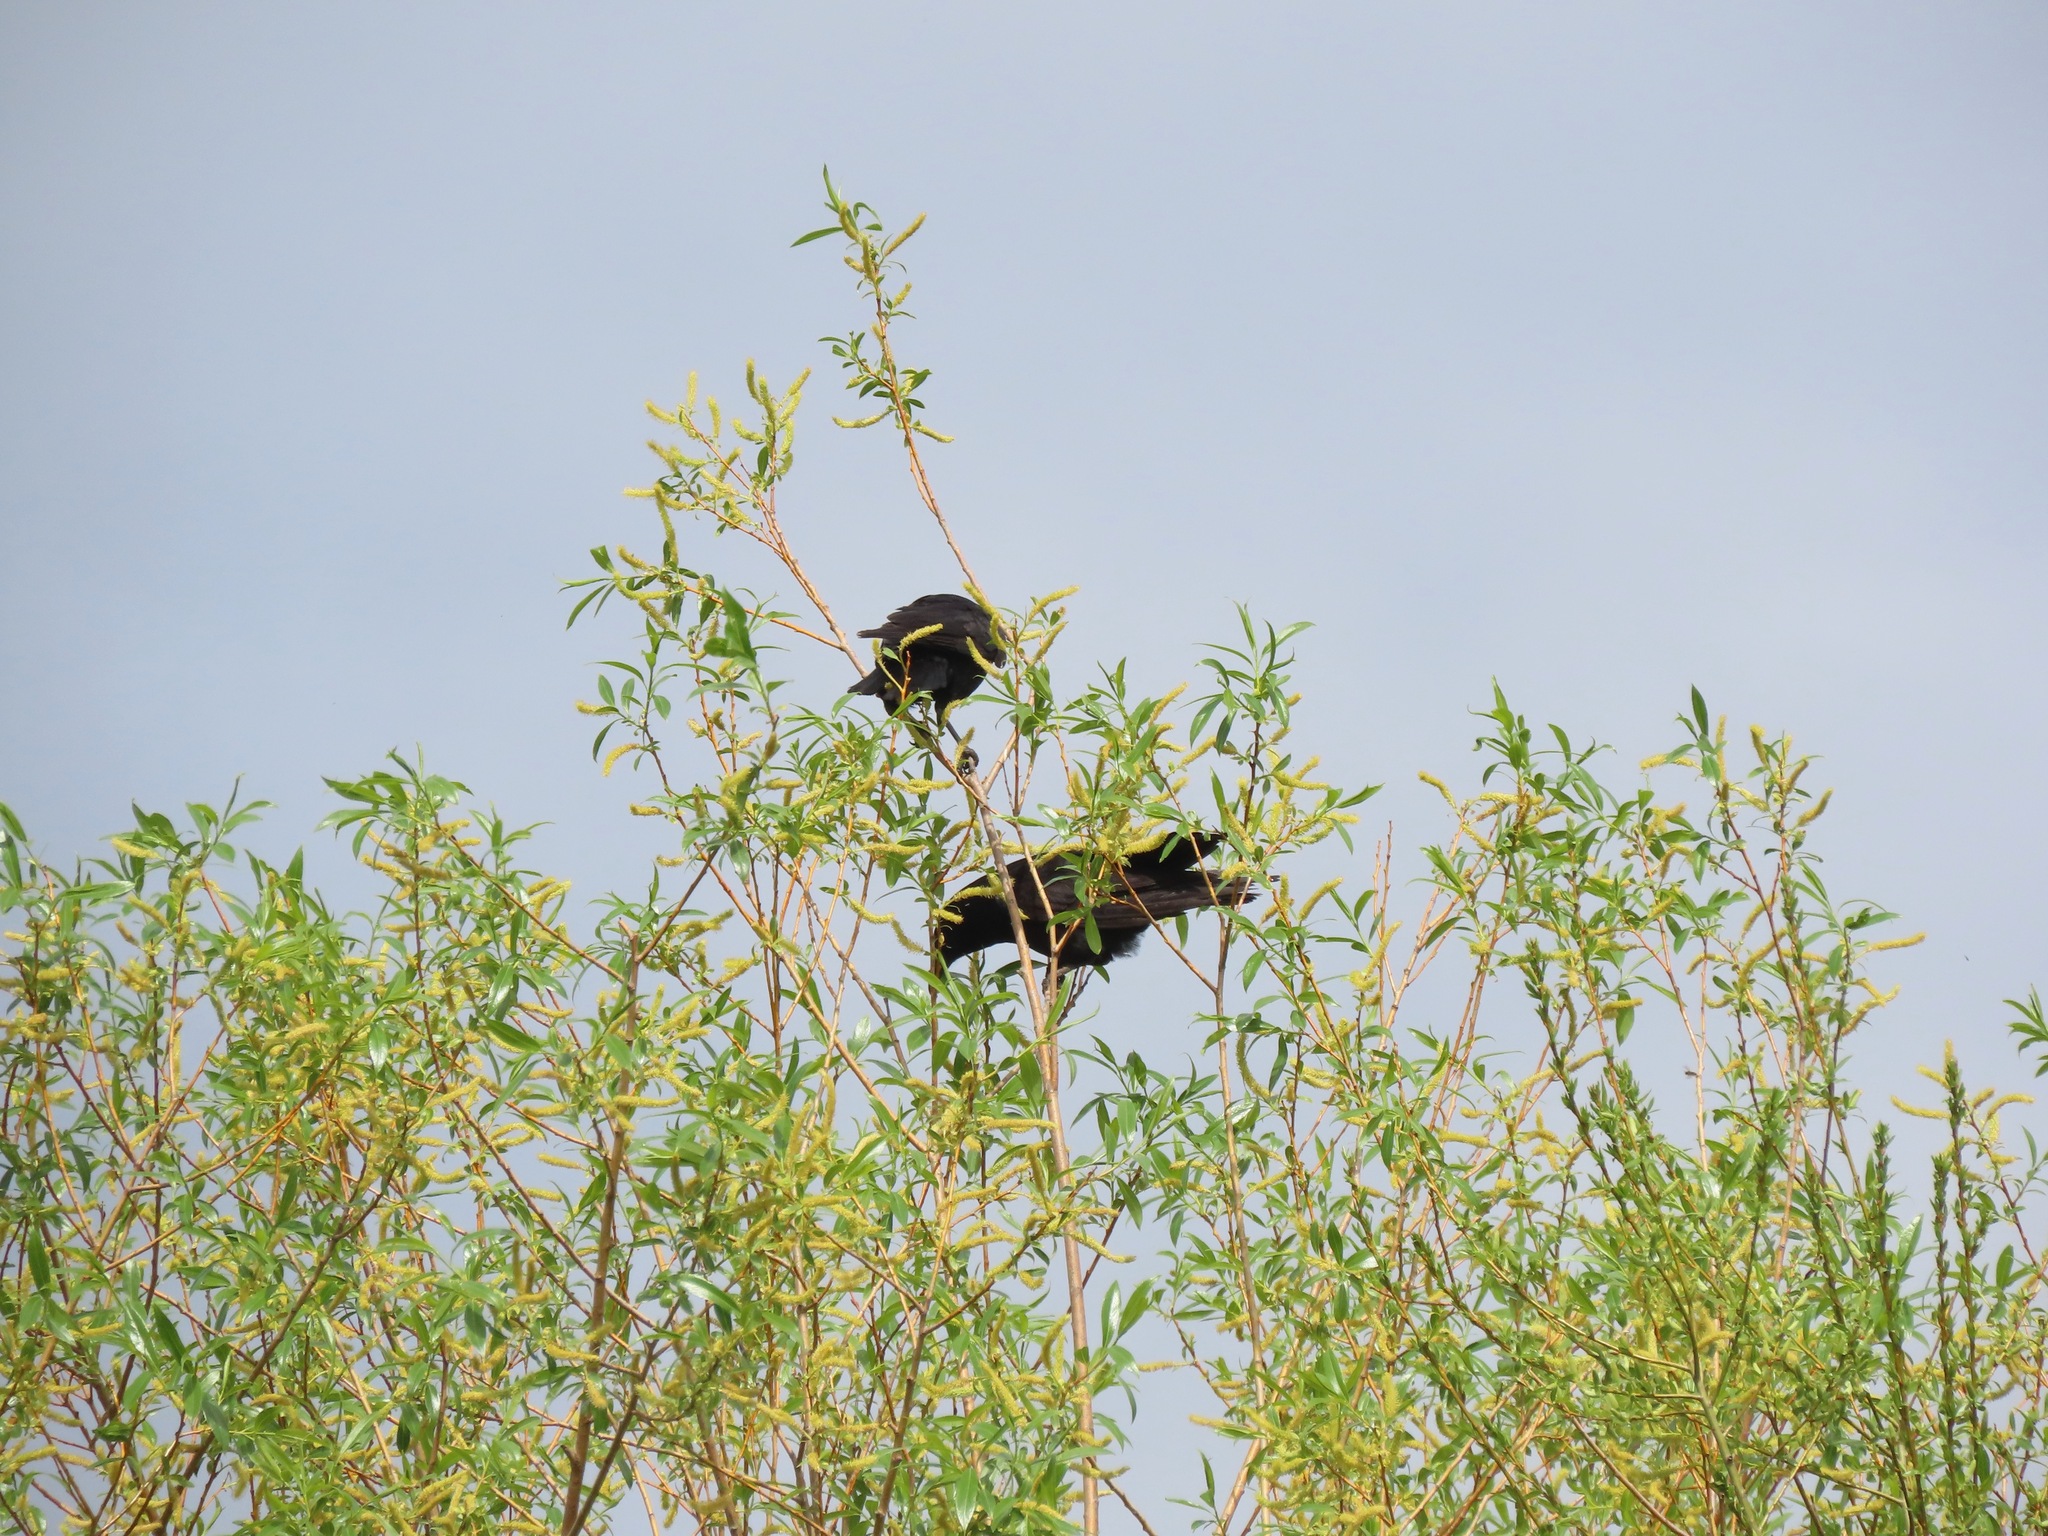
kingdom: Animalia
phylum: Chordata
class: Aves
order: Passeriformes
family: Corvidae
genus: Corvus
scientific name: Corvus brachyrhynchos
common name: American crow
